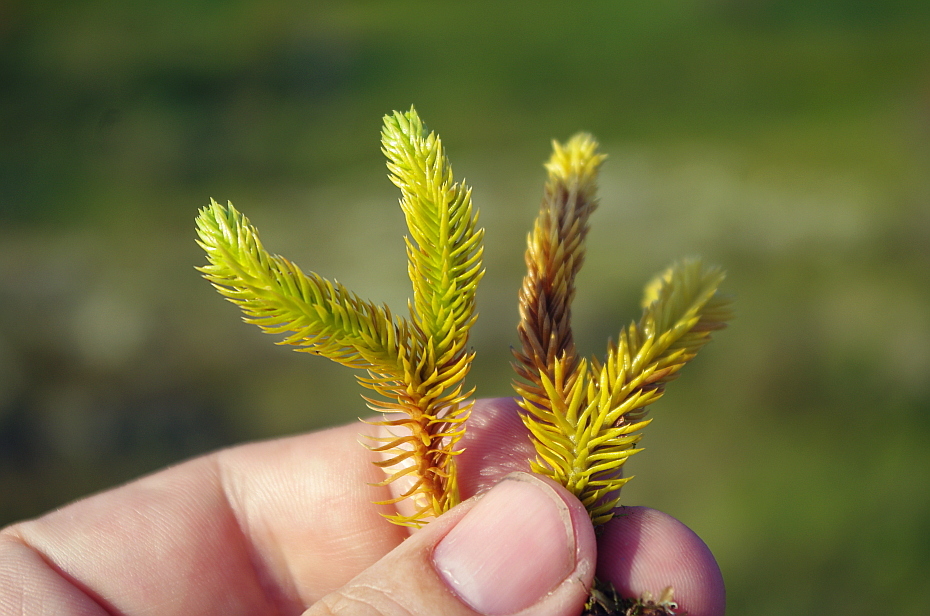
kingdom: Plantae
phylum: Tracheophyta
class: Lycopodiopsida
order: Lycopodiales
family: Lycopodiaceae
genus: Huperzia
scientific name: Huperzia selago
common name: Northern firmoss
